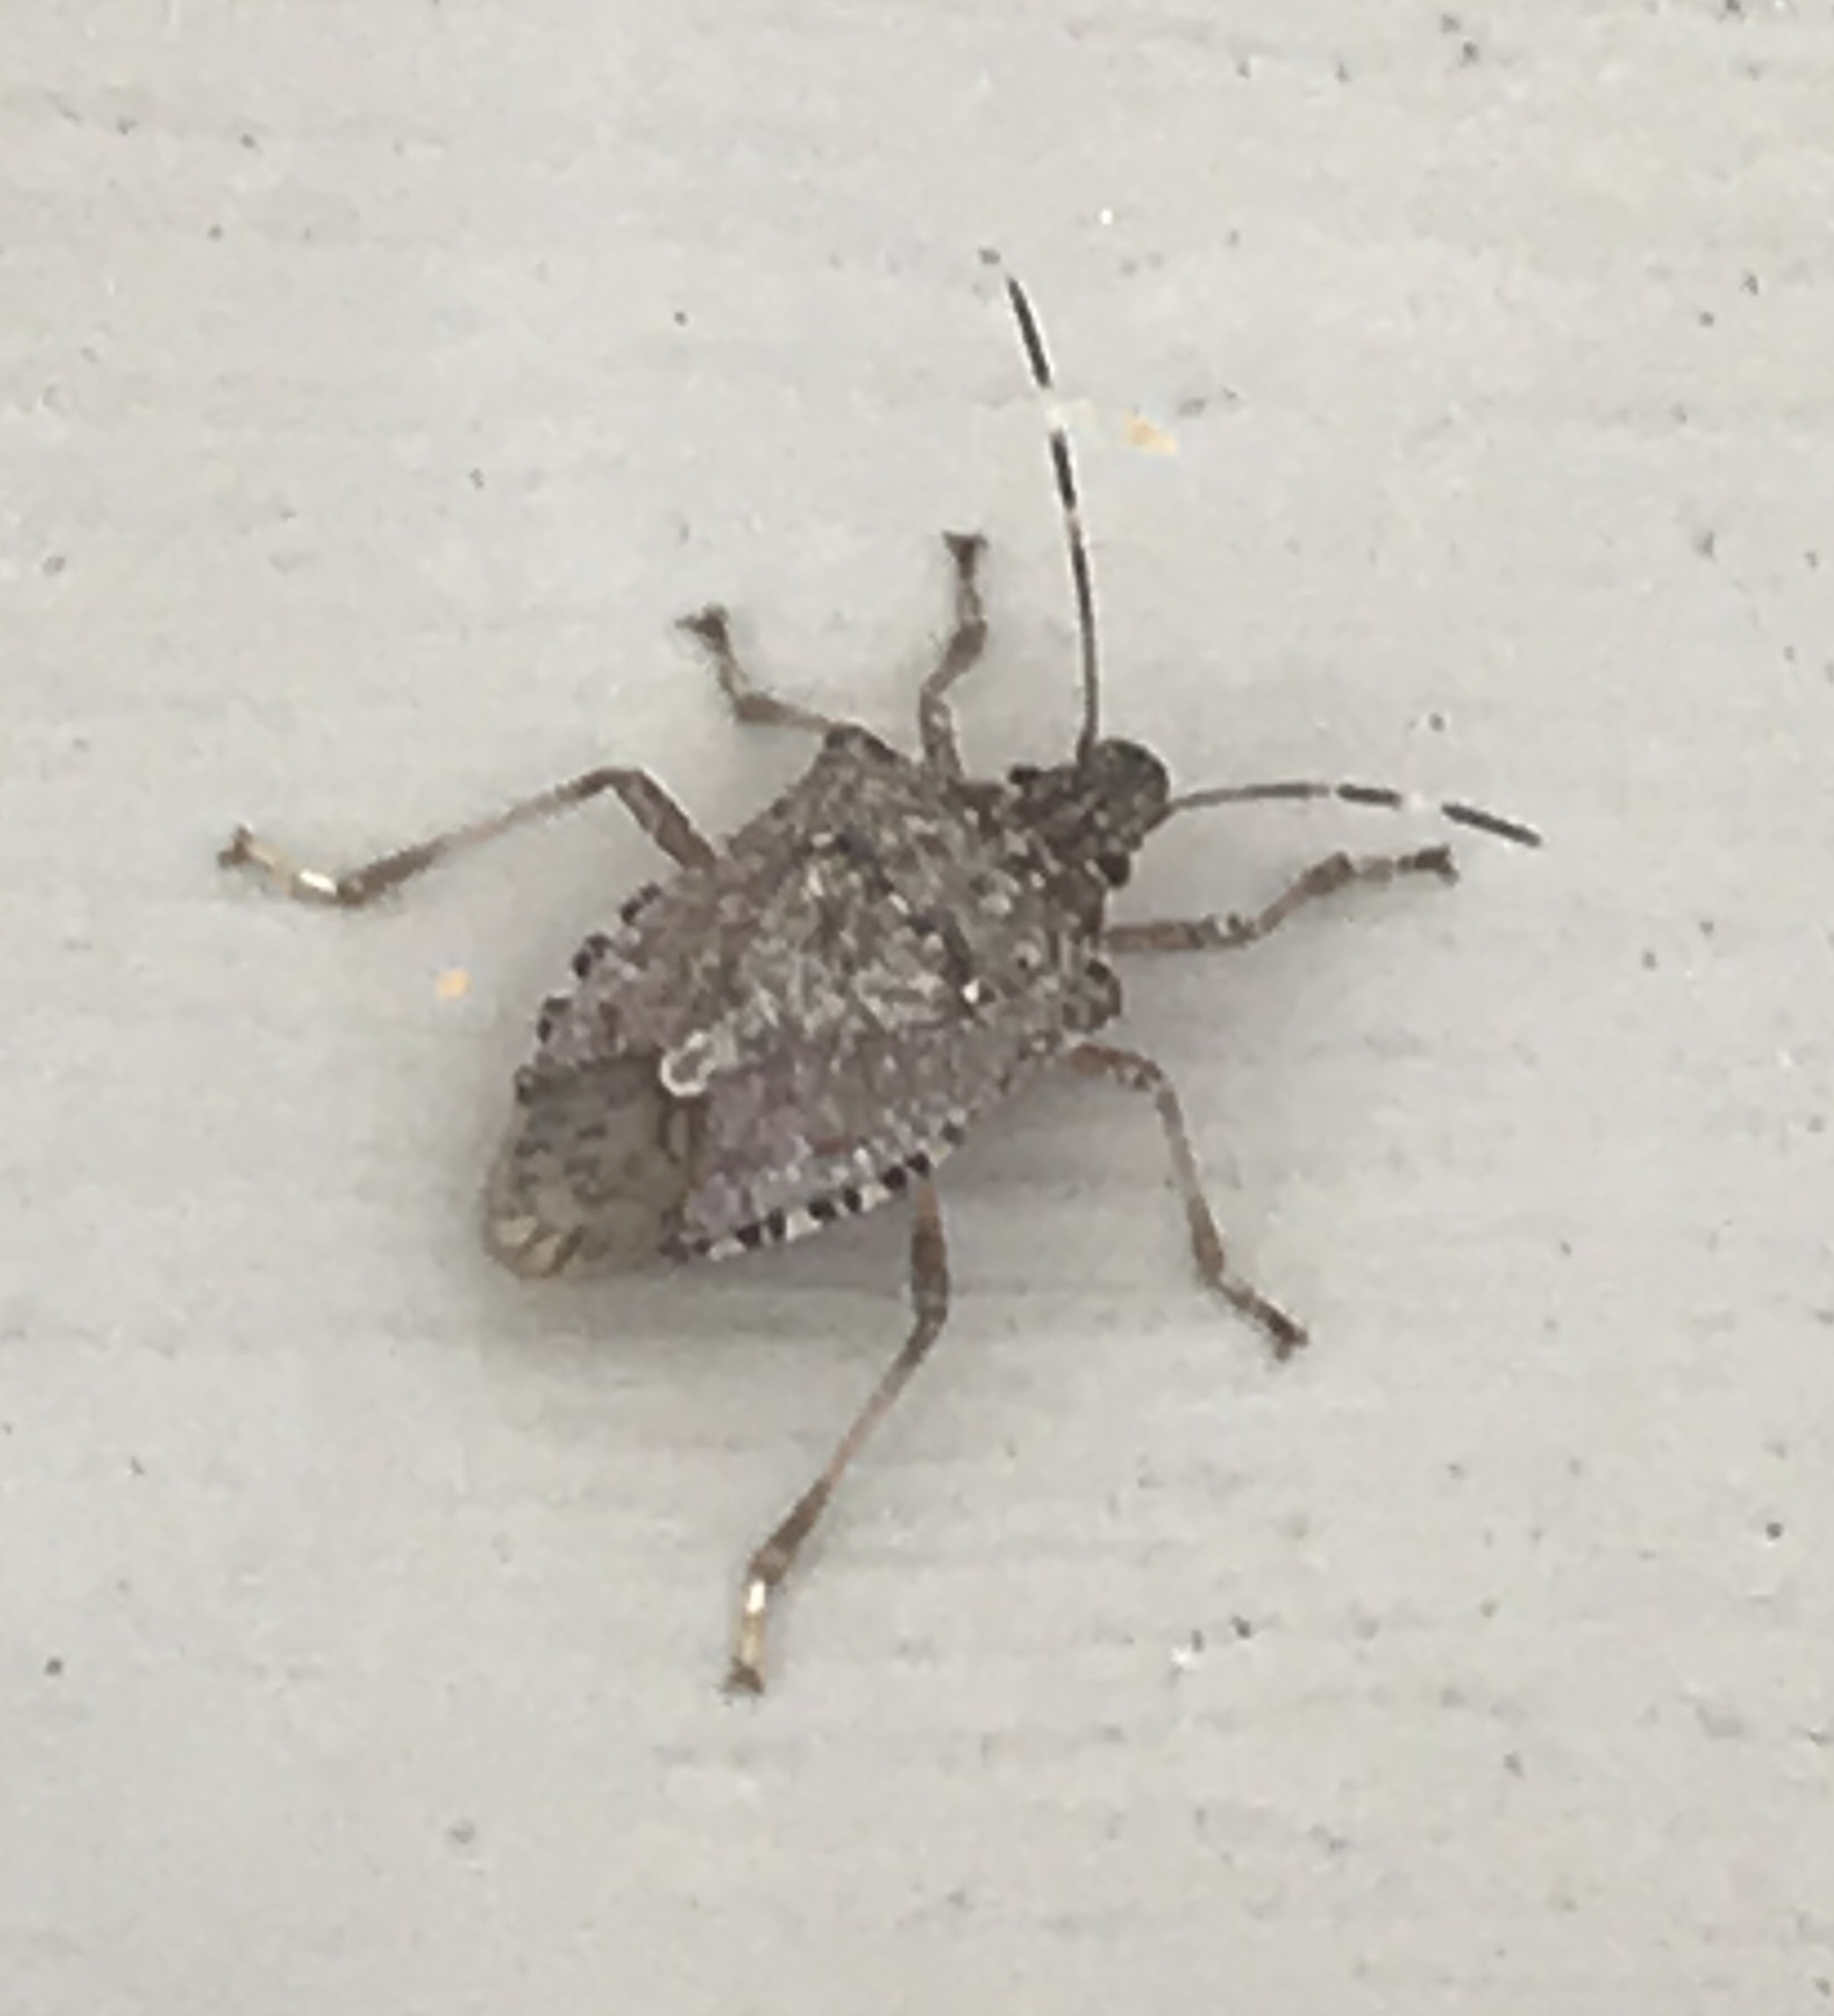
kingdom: Animalia
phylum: Arthropoda
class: Insecta
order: Hemiptera
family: Pentatomidae
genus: Halyomorpha
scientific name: Halyomorpha halys
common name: Brown marmorated stink bug
